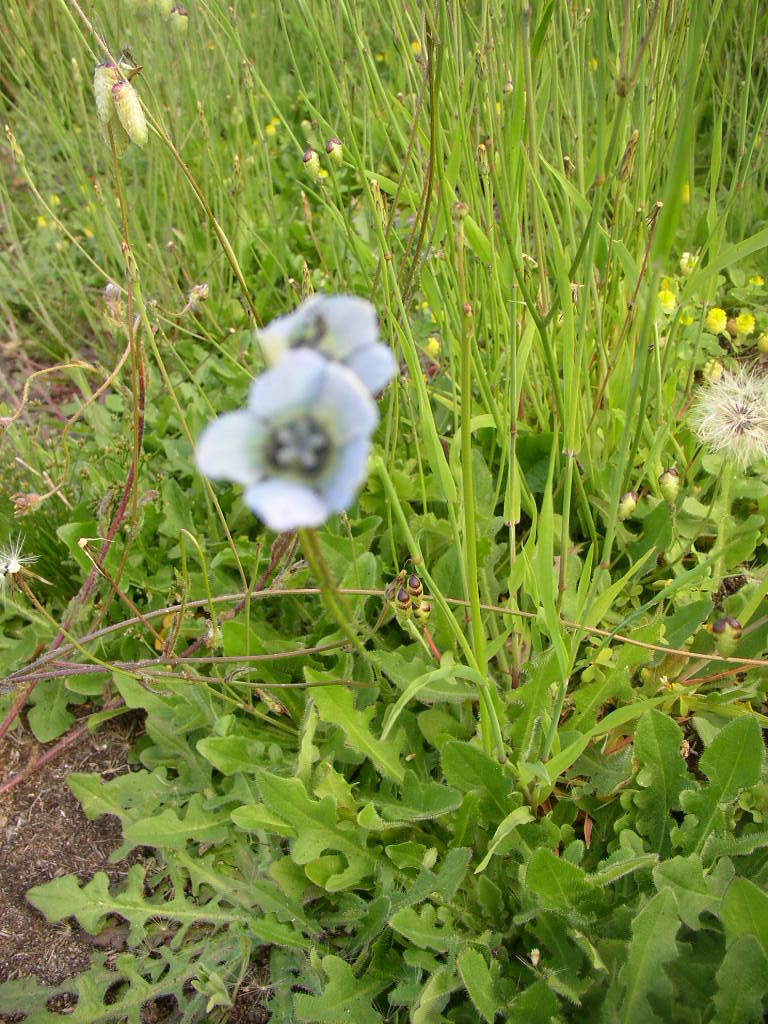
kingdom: Plantae
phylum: Tracheophyta
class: Magnoliopsida
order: Asterales
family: Campanulaceae
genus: Wahlenbergia
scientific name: Wahlenbergia capensis
